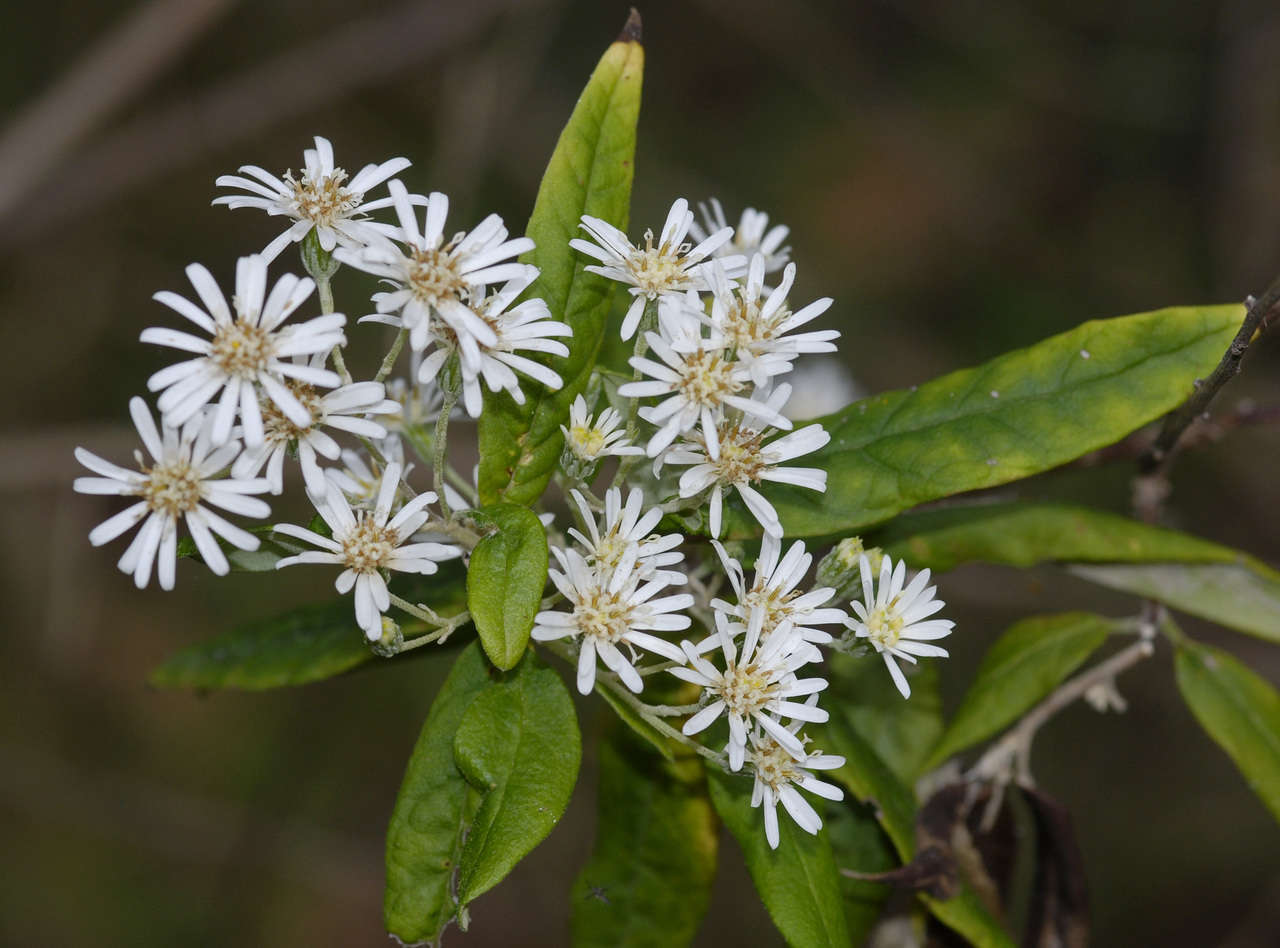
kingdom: Plantae
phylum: Tracheophyta
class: Magnoliopsida
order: Asterales
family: Asteraceae
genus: Olearia
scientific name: Olearia lirata
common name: Dusty daisybush
